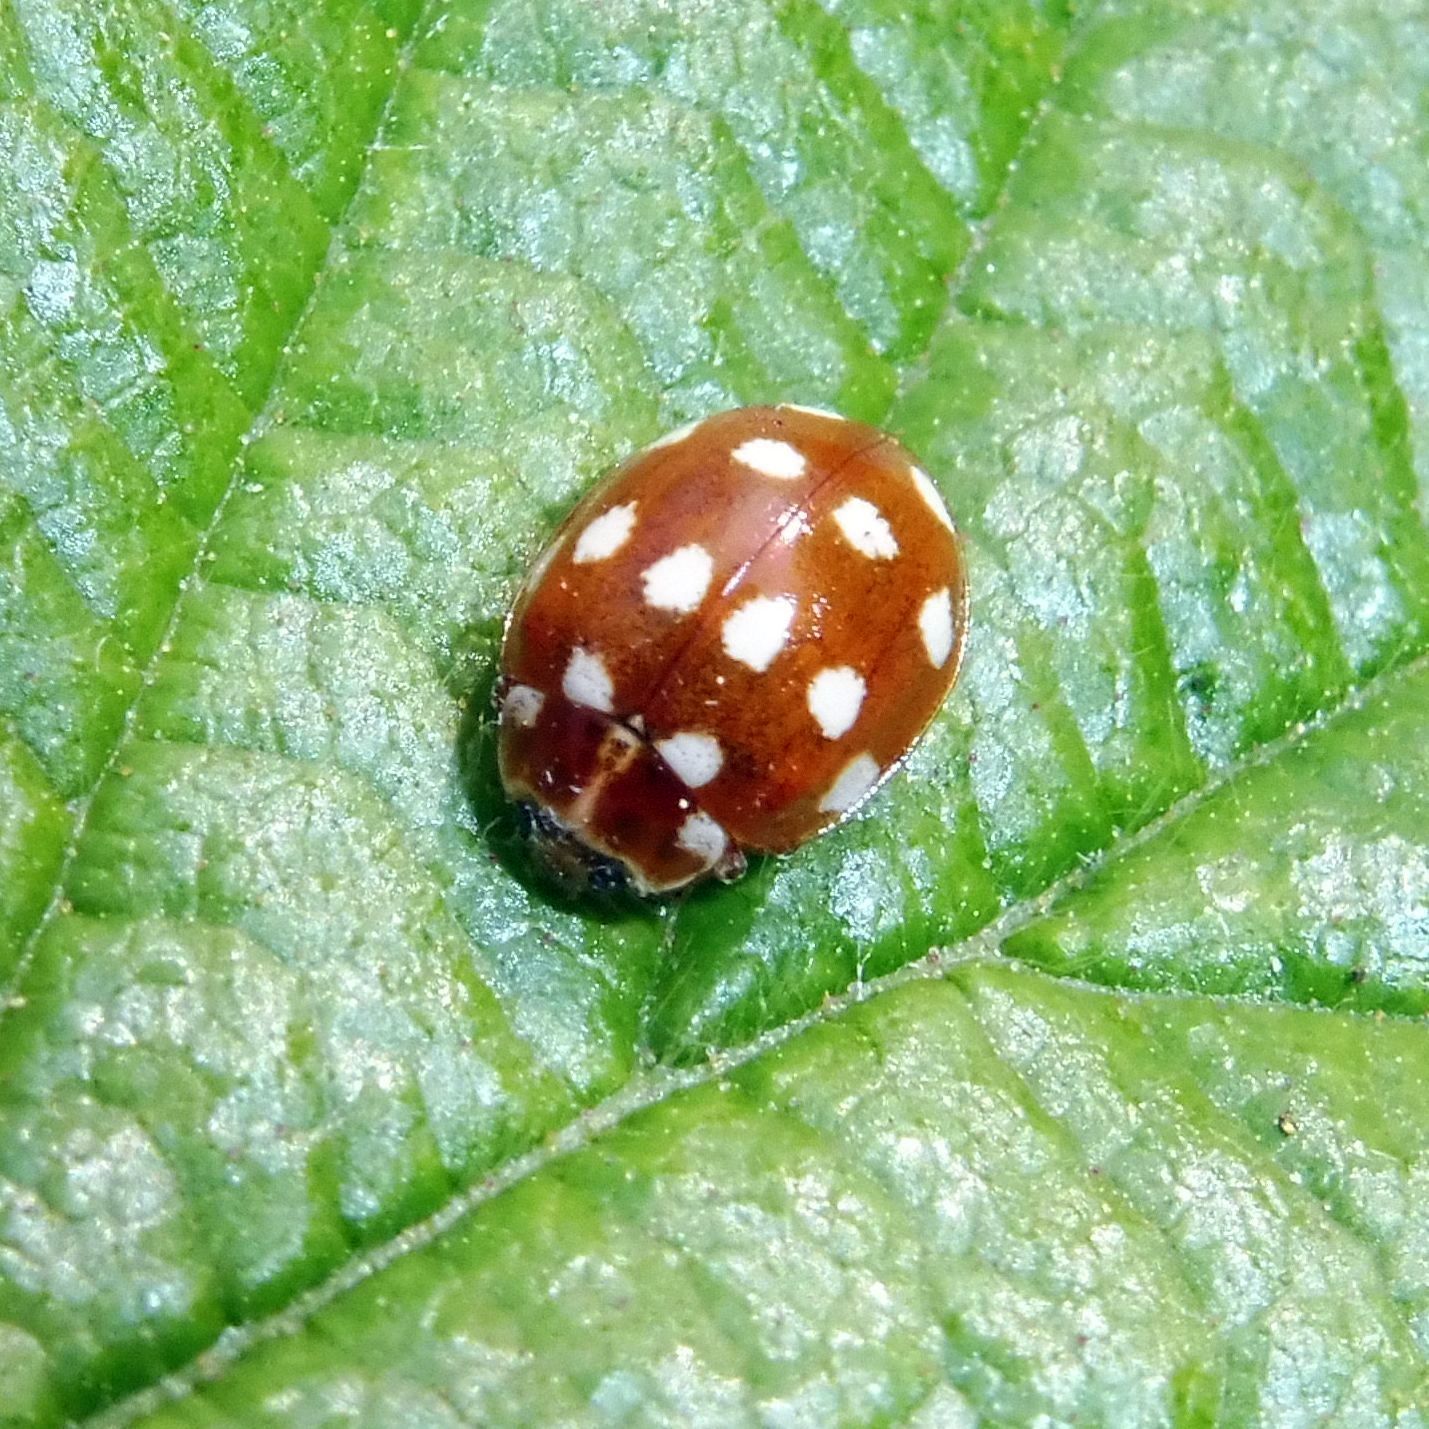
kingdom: Animalia
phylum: Arthropoda
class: Insecta
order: Coleoptera
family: Coccinellidae
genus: Calvia
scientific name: Calvia quatuordecimguttata
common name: Cream-spot ladybird
